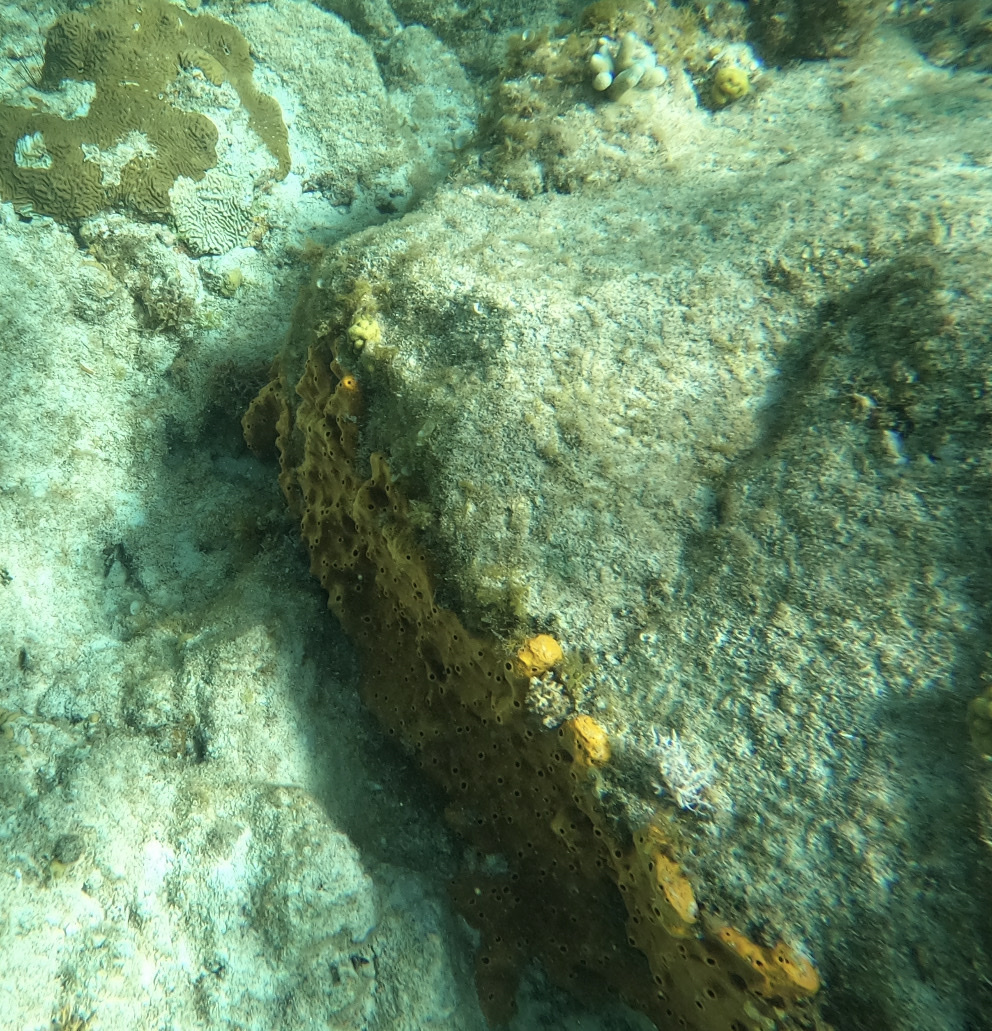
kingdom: Animalia
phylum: Porifera
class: Demospongiae
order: Axinellida
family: Raspailiidae
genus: Ectyoplasia
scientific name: Ectyoplasia ferox
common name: Brown encrusting octopus sponge
